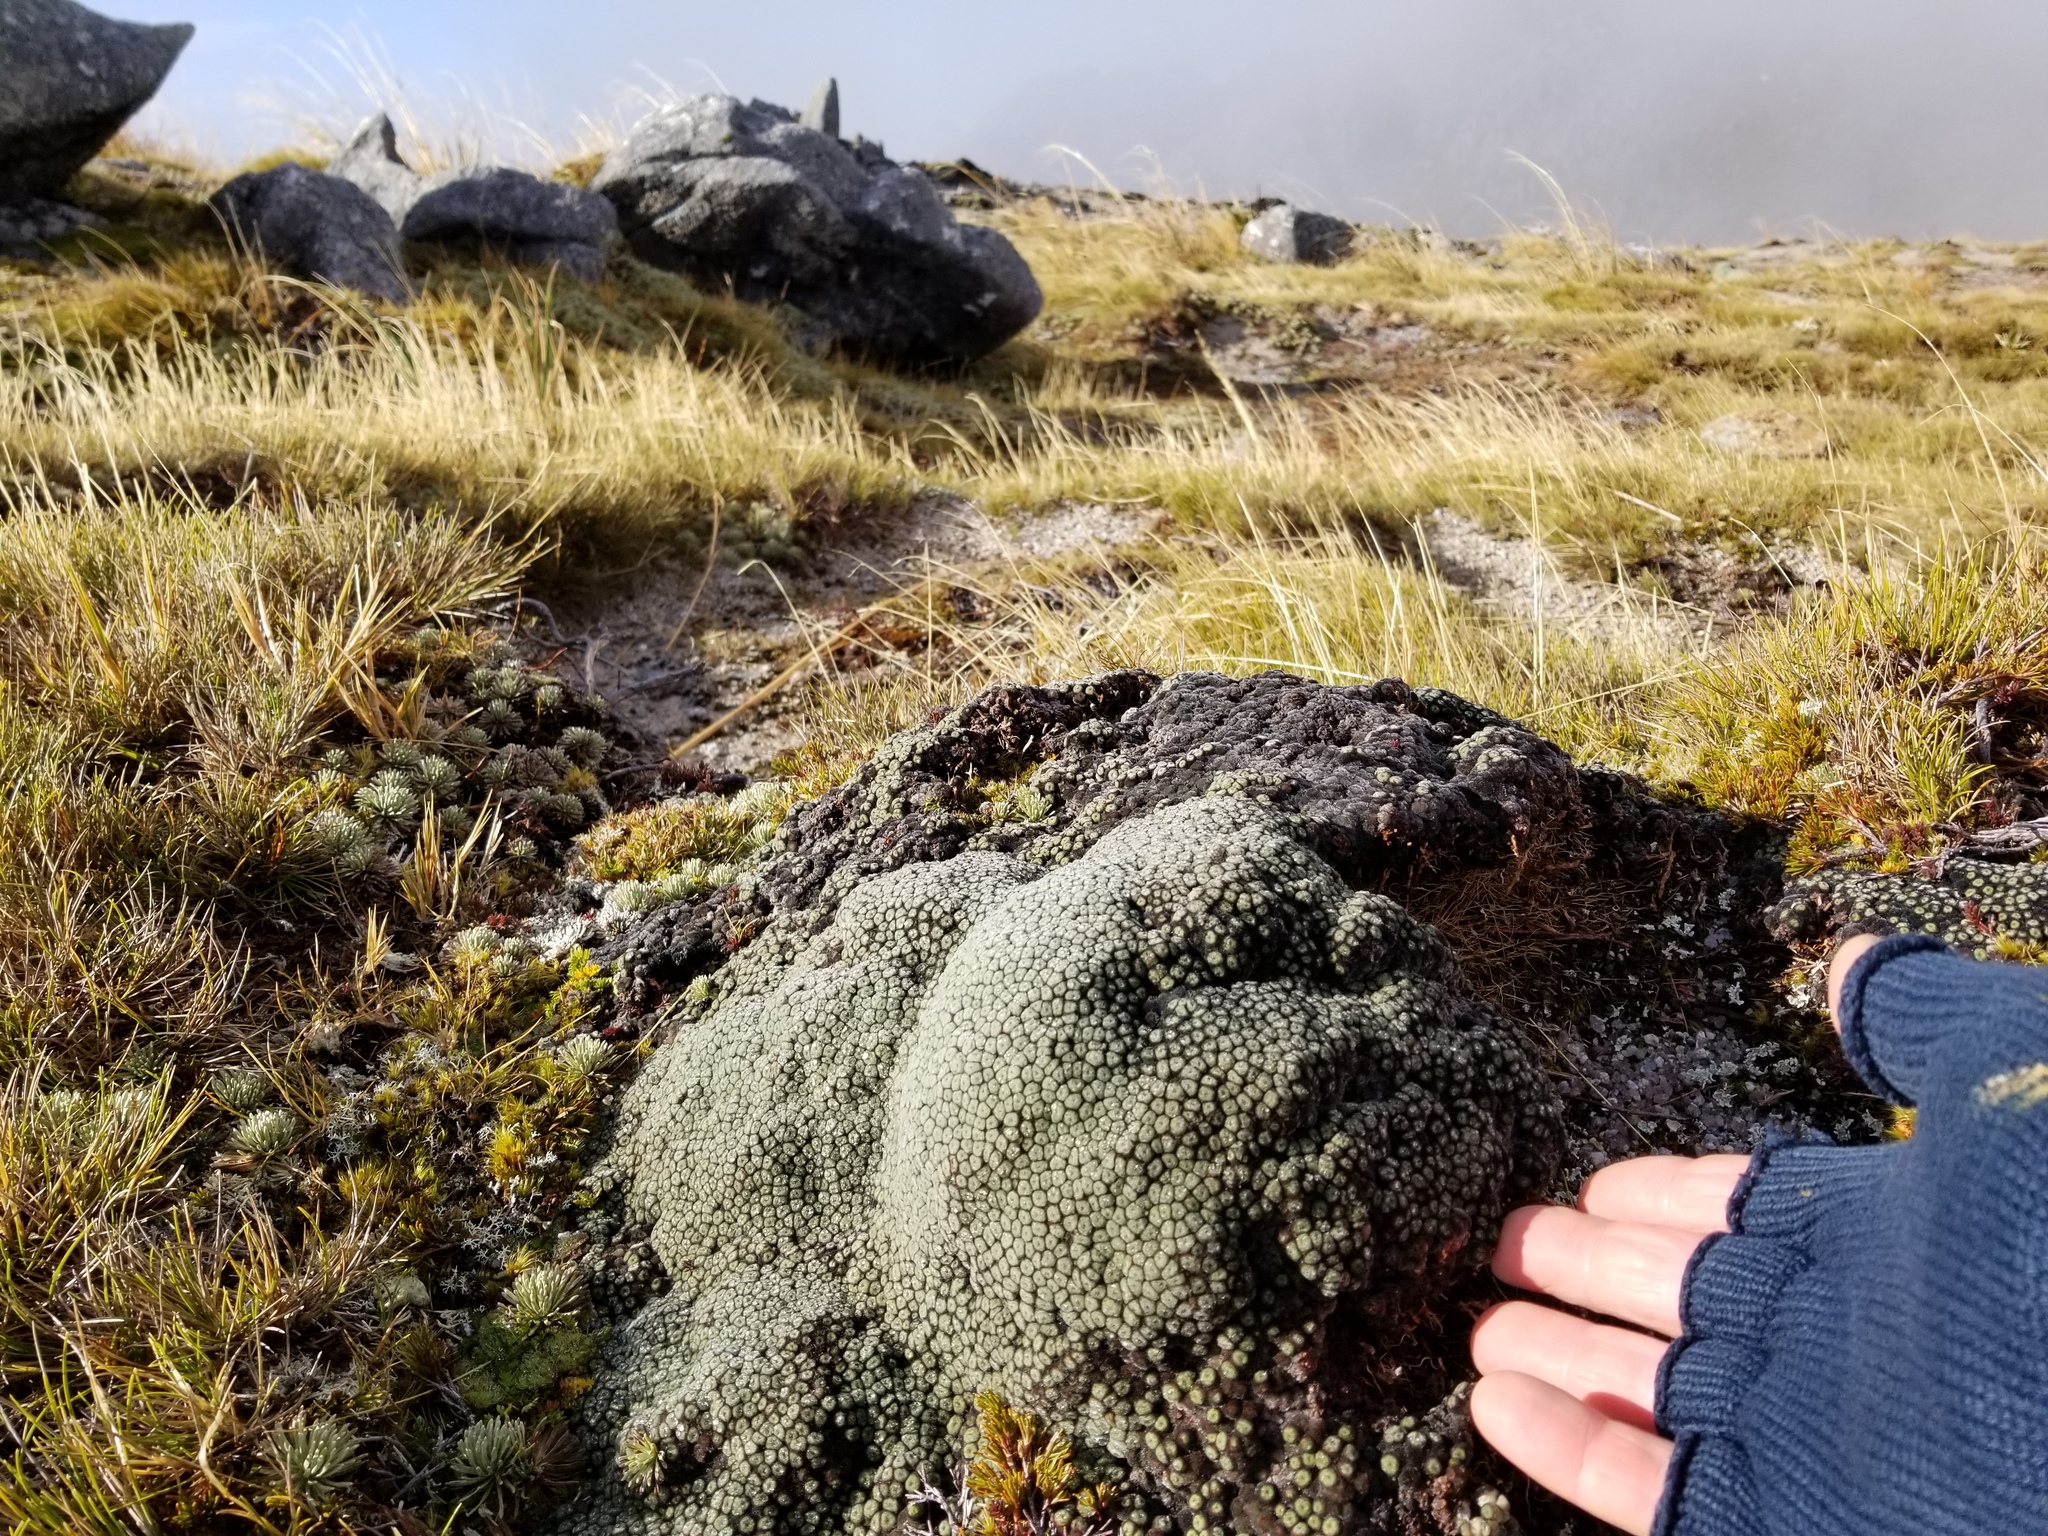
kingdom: Plantae
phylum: Tracheophyta
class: Magnoliopsida
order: Asterales
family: Asteraceae
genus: Raoulia
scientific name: Raoulia eximia
